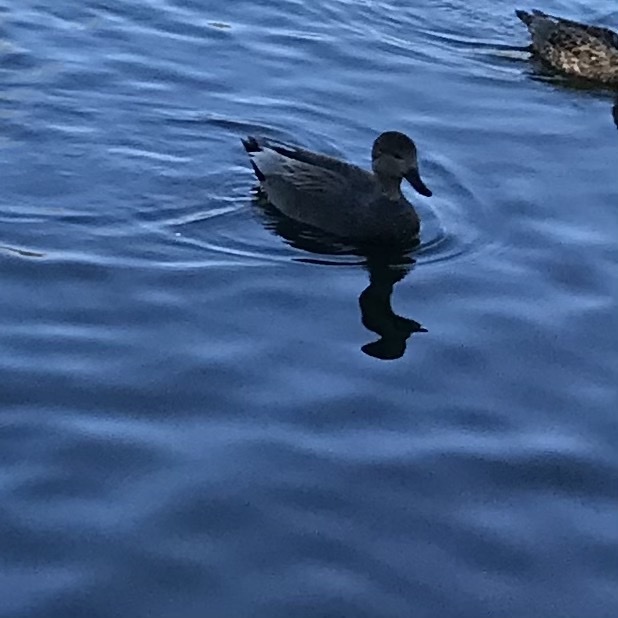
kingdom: Animalia
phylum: Chordata
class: Aves
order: Anseriformes
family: Anatidae
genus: Mareca
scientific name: Mareca strepera
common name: Gadwall
